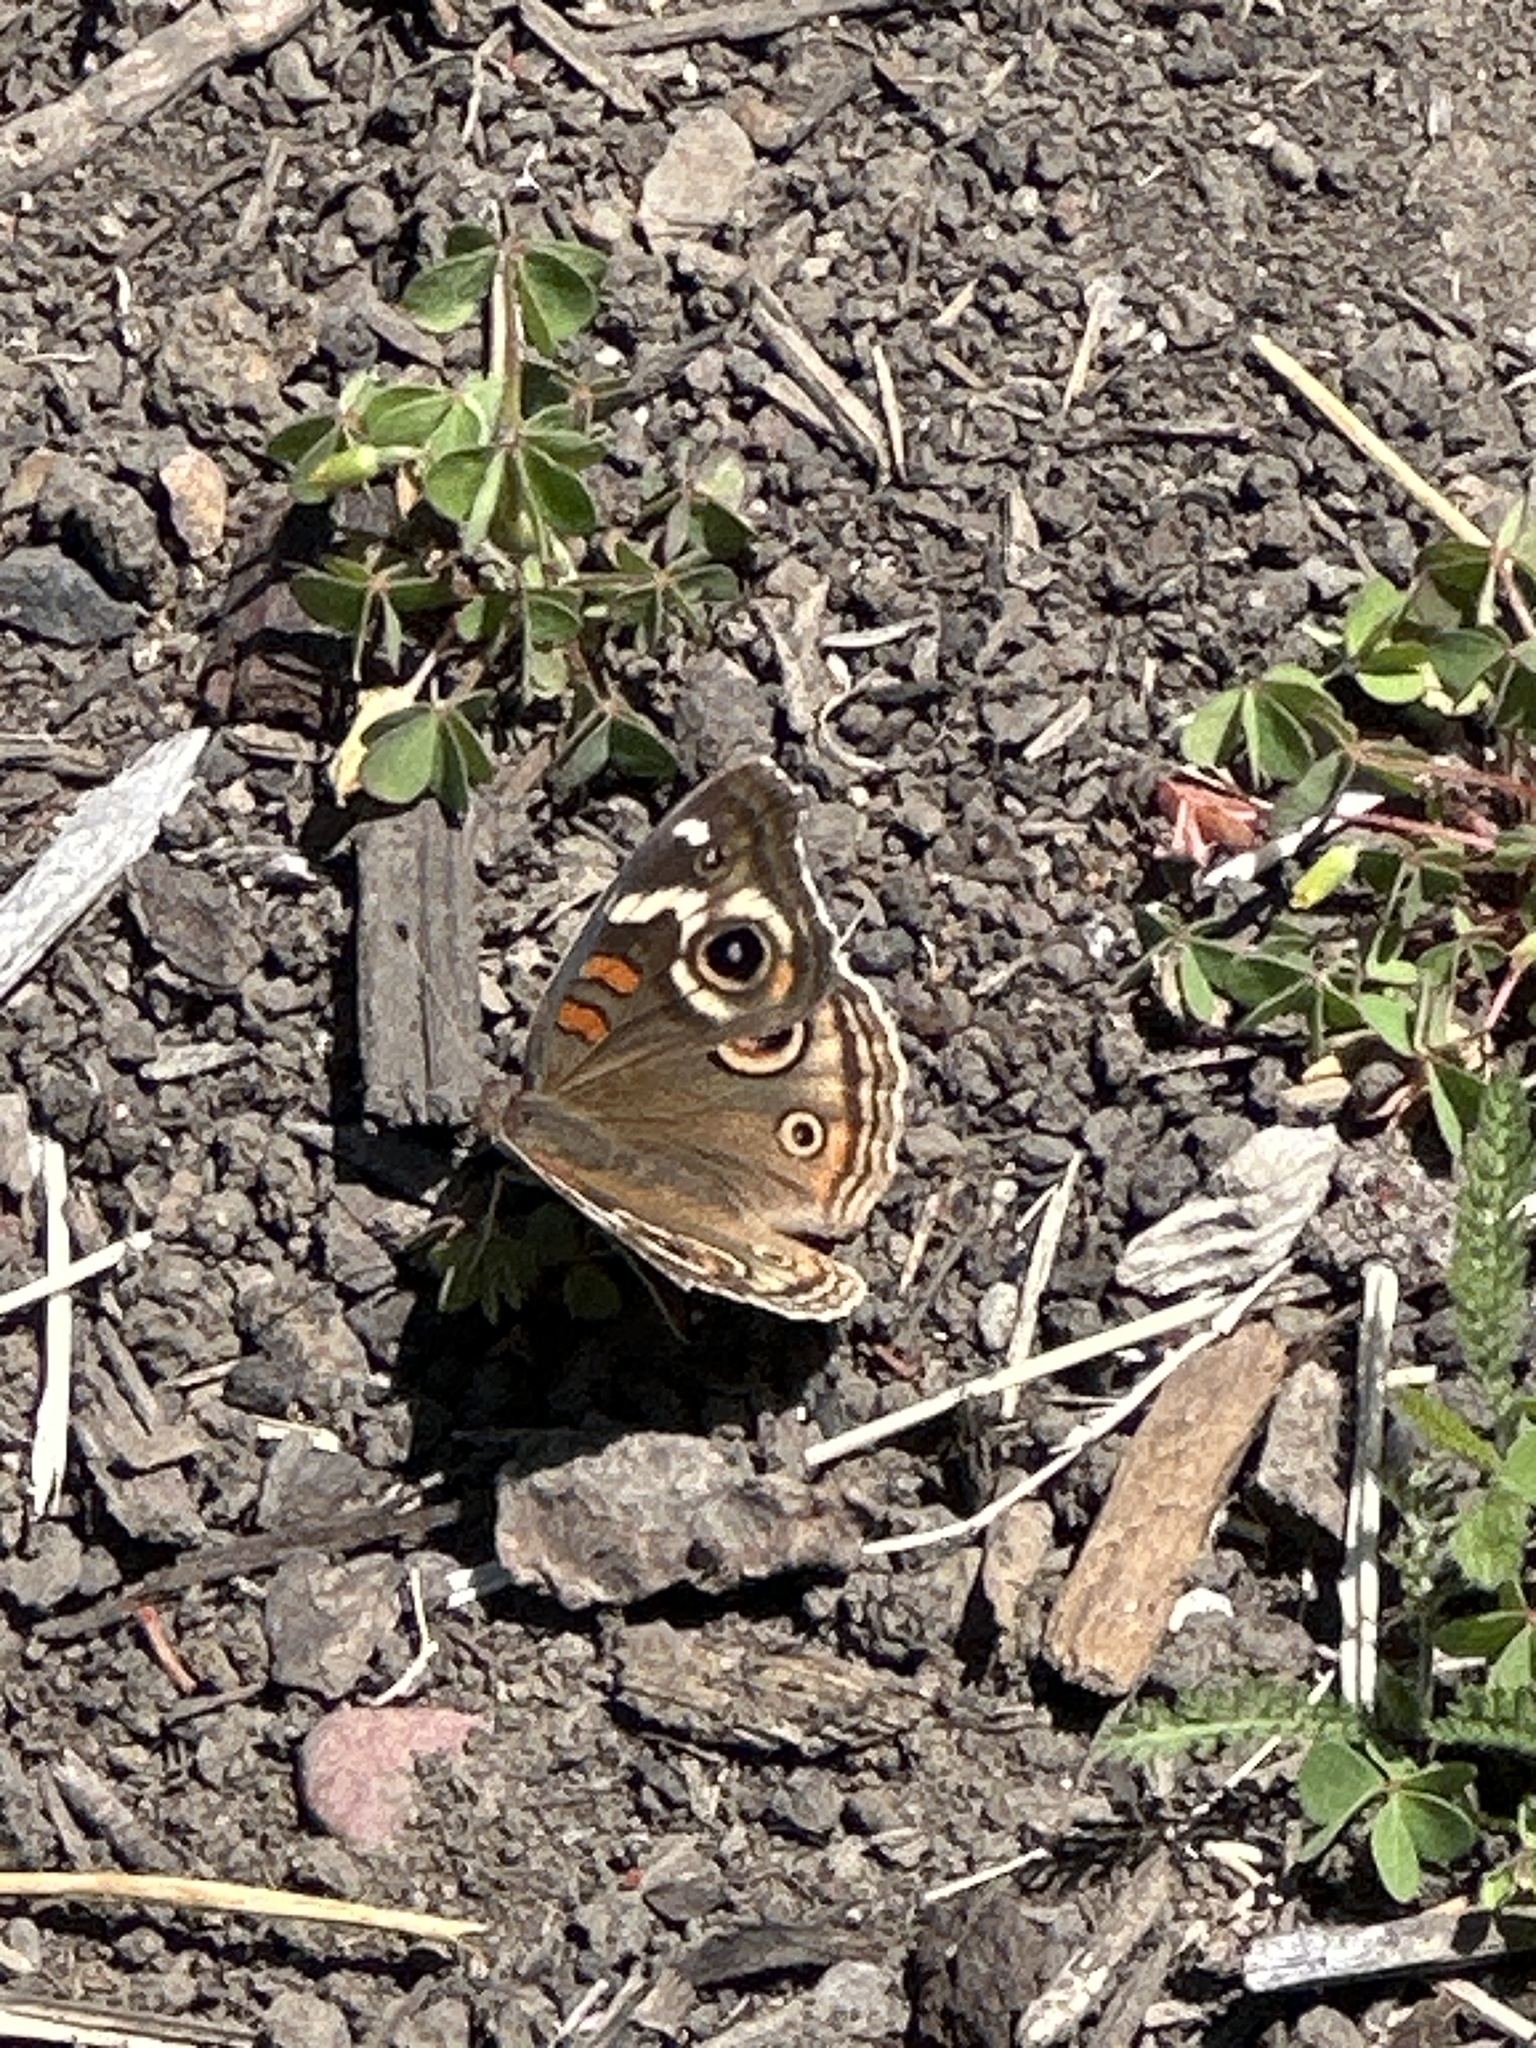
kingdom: Animalia
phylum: Arthropoda
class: Insecta
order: Lepidoptera
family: Nymphalidae
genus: Junonia
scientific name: Junonia grisea
